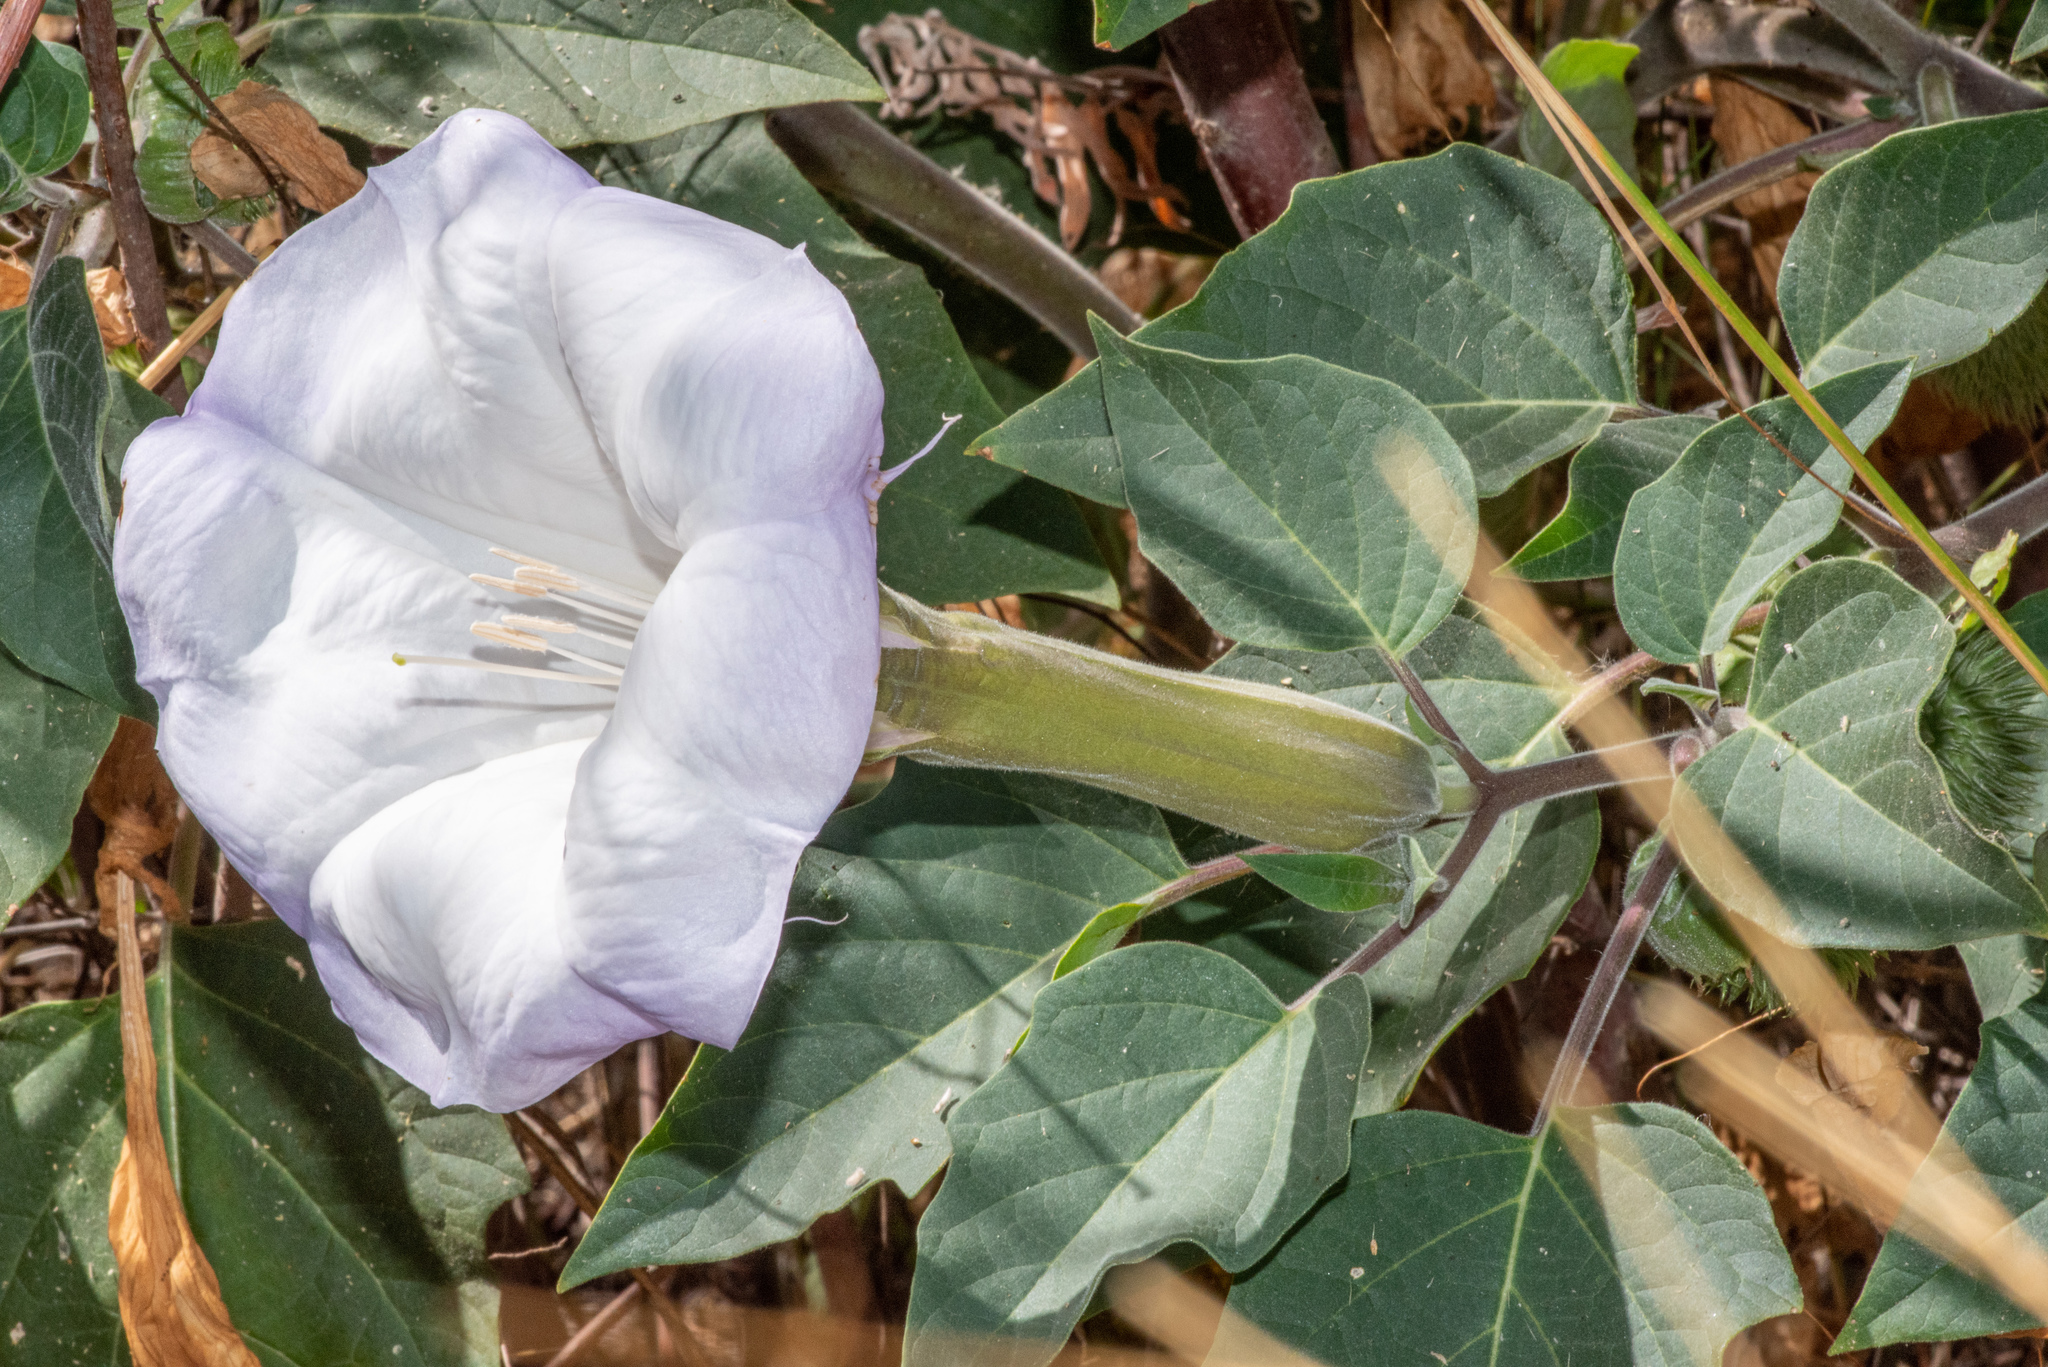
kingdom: Plantae
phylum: Tracheophyta
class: Magnoliopsida
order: Solanales
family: Solanaceae
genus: Datura
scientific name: Datura wrightii
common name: Sacred thorn-apple
